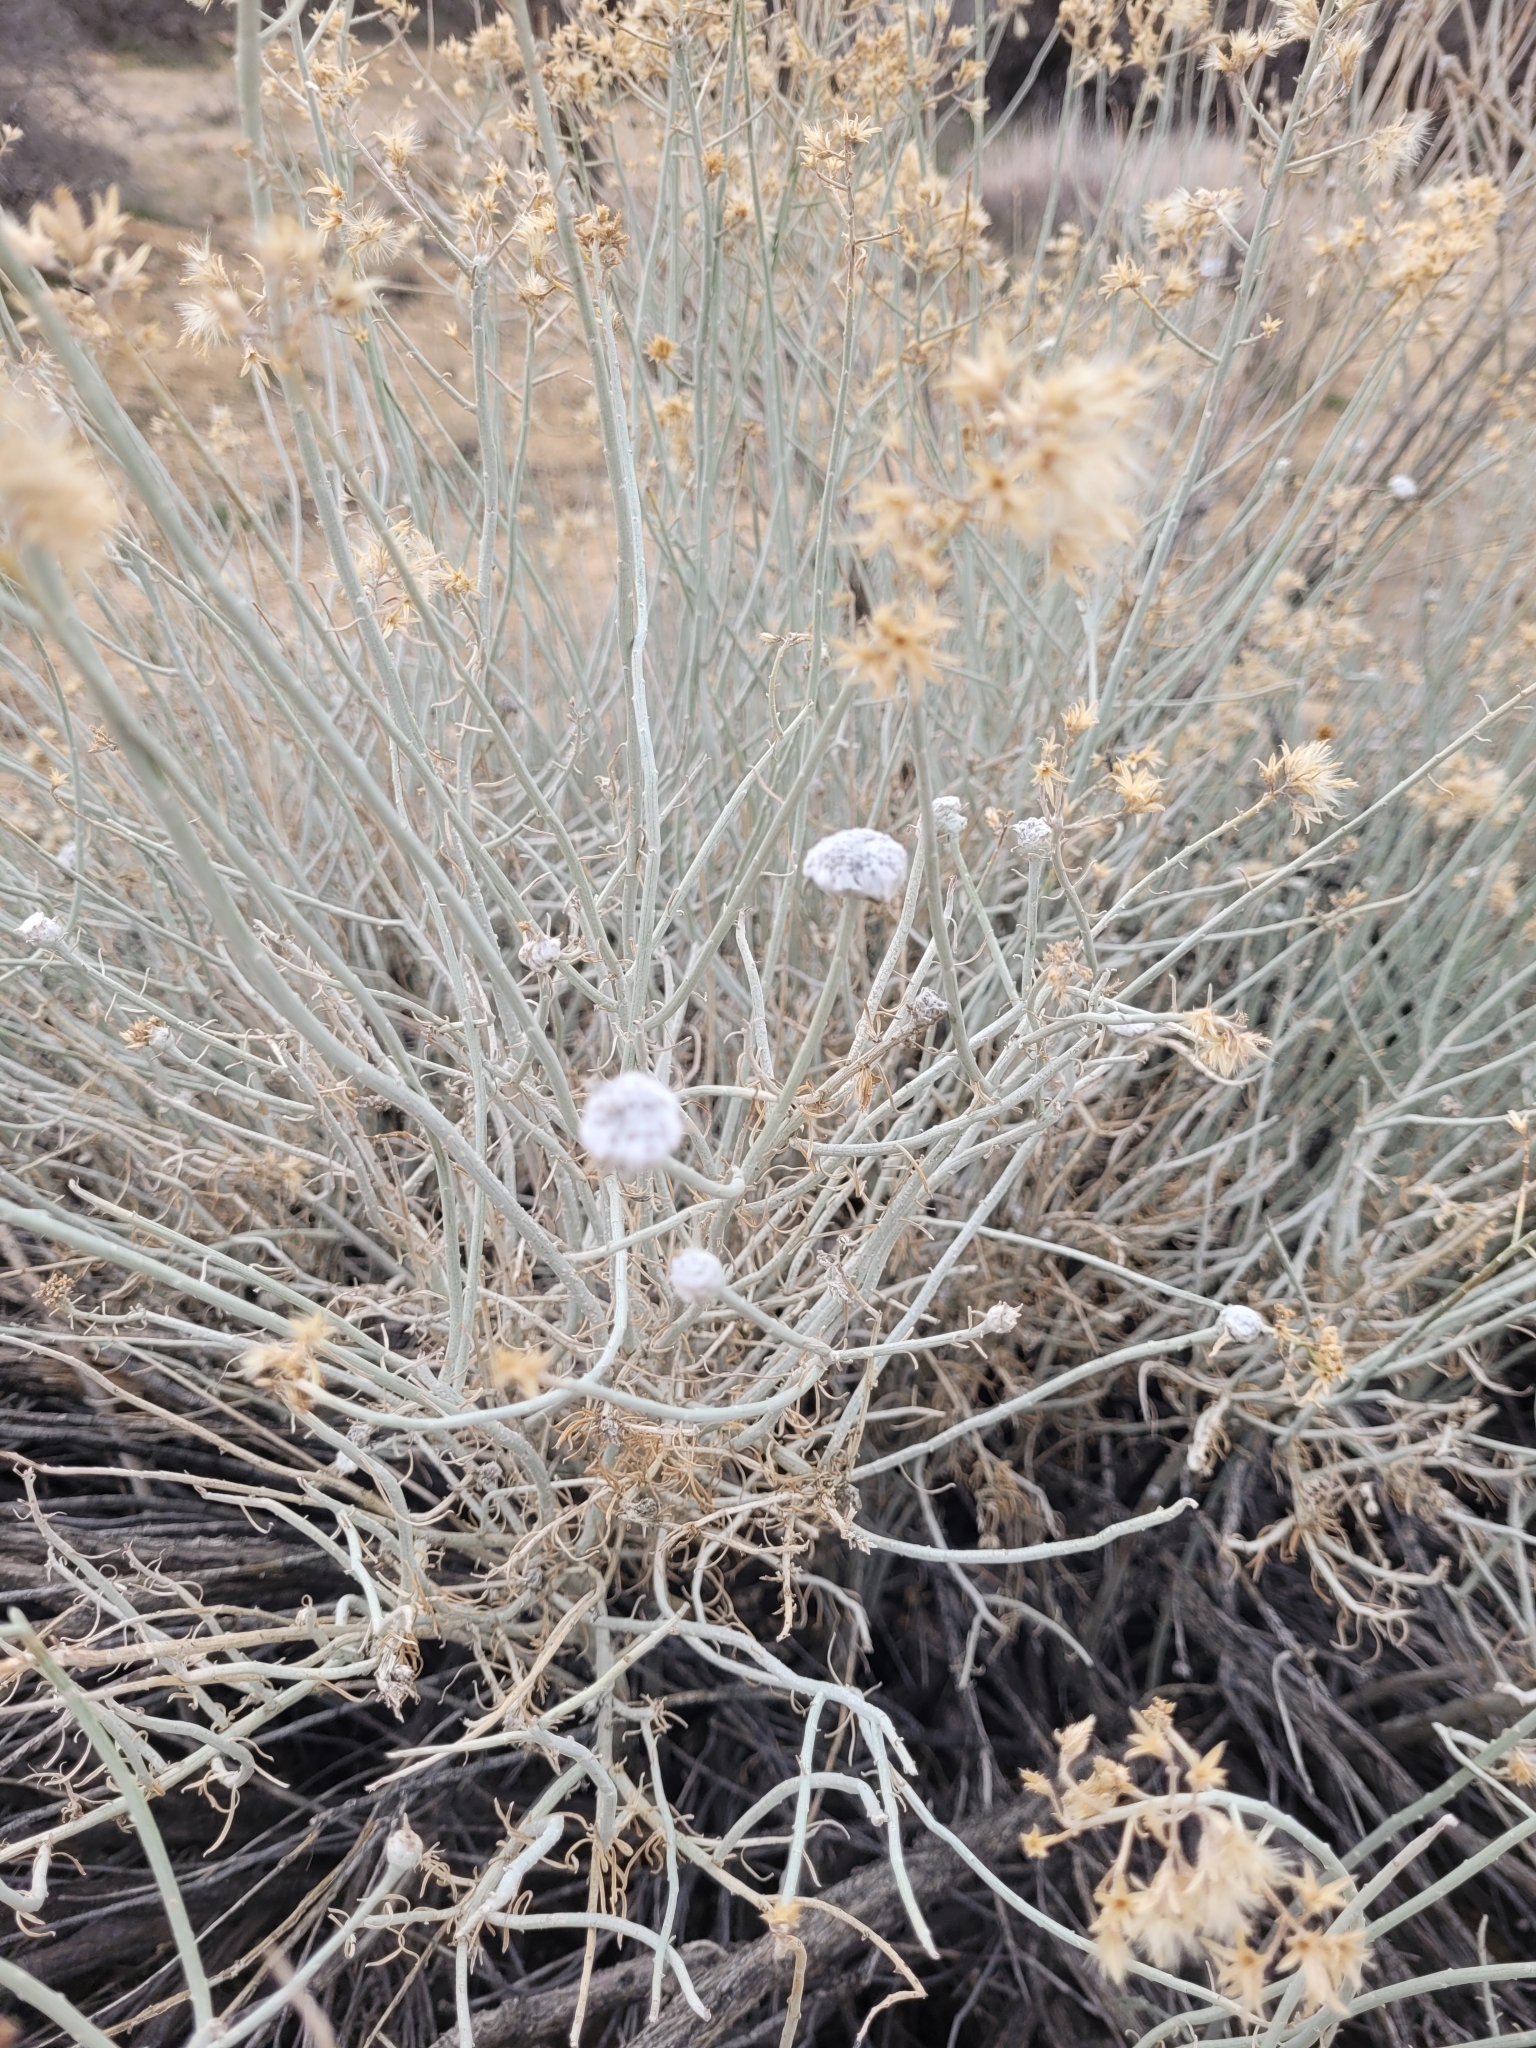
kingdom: Plantae
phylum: Tracheophyta
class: Magnoliopsida
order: Asterales
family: Asteraceae
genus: Ericameria
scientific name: Ericameria nauseosa
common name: Rubber rabbitbrush
